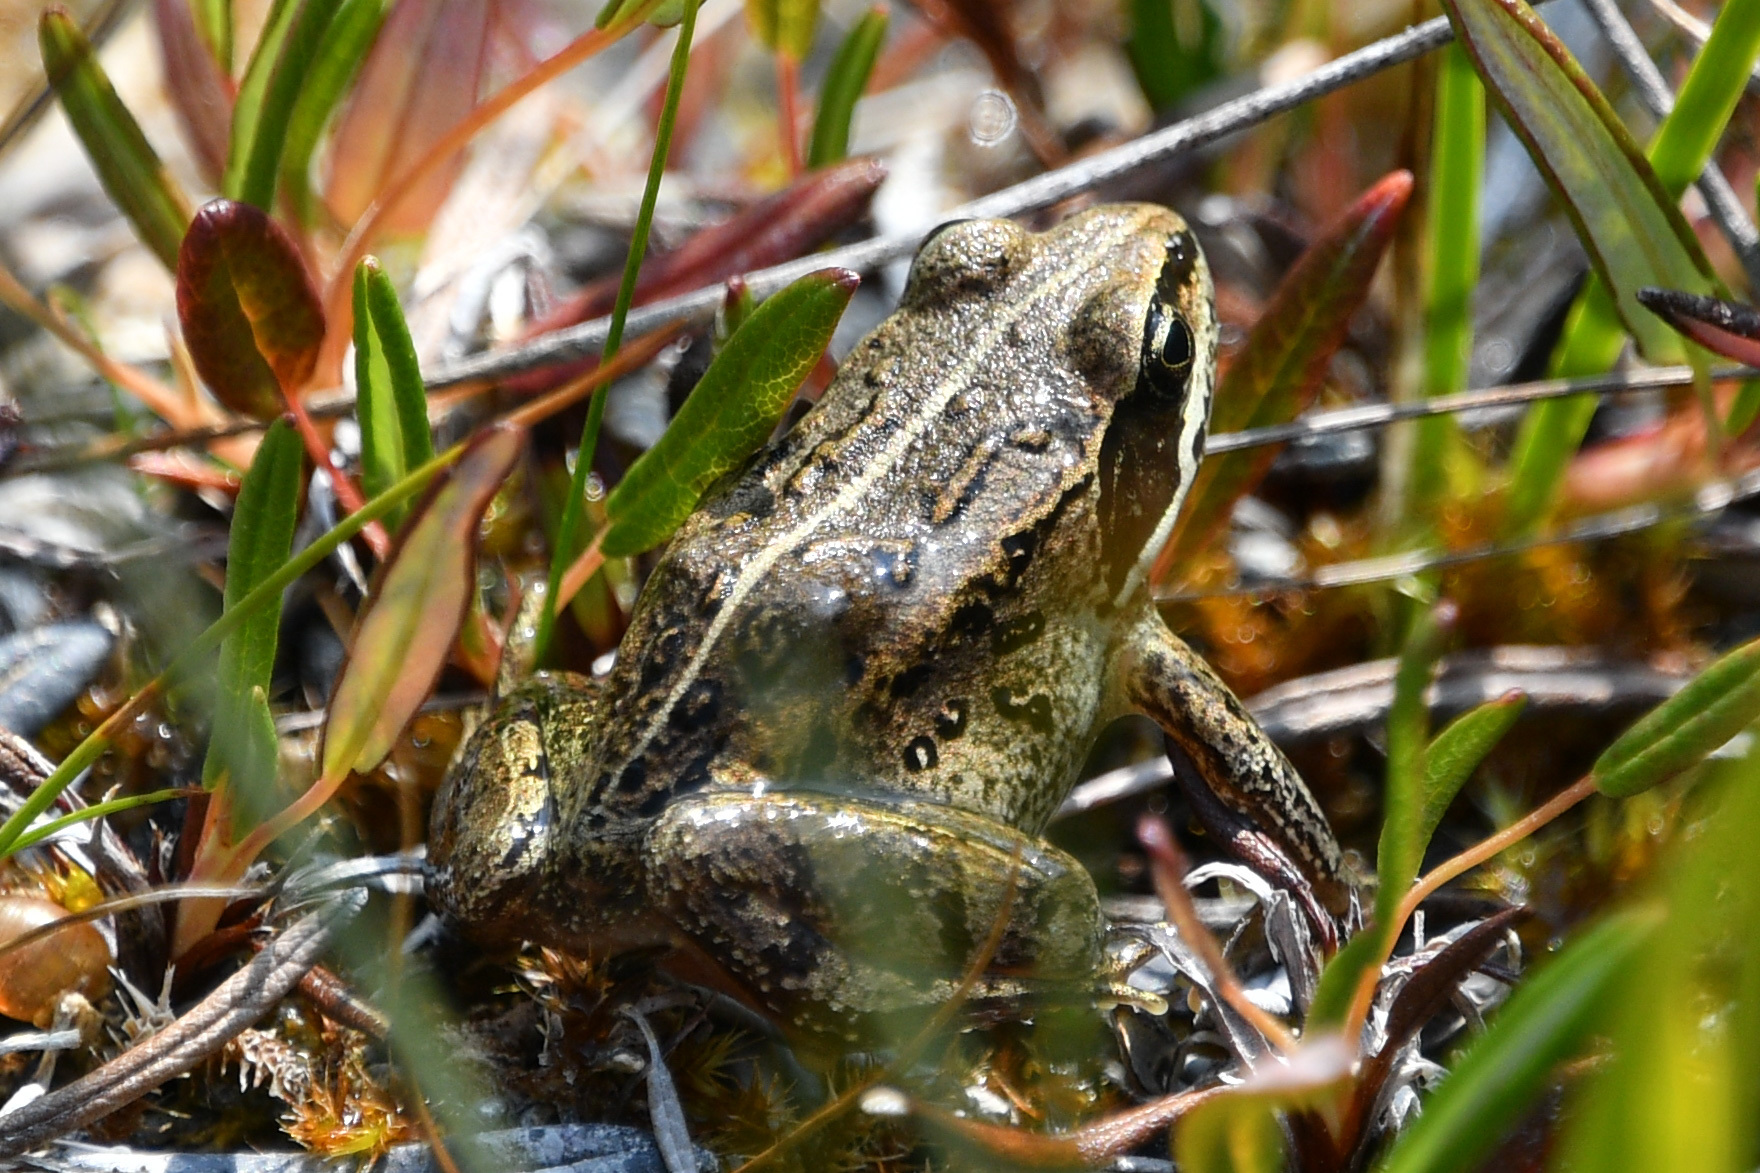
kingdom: Animalia
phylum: Chordata
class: Amphibia
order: Anura
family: Ranidae
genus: Lithobates
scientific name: Lithobates sylvaticus
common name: Wood frog
